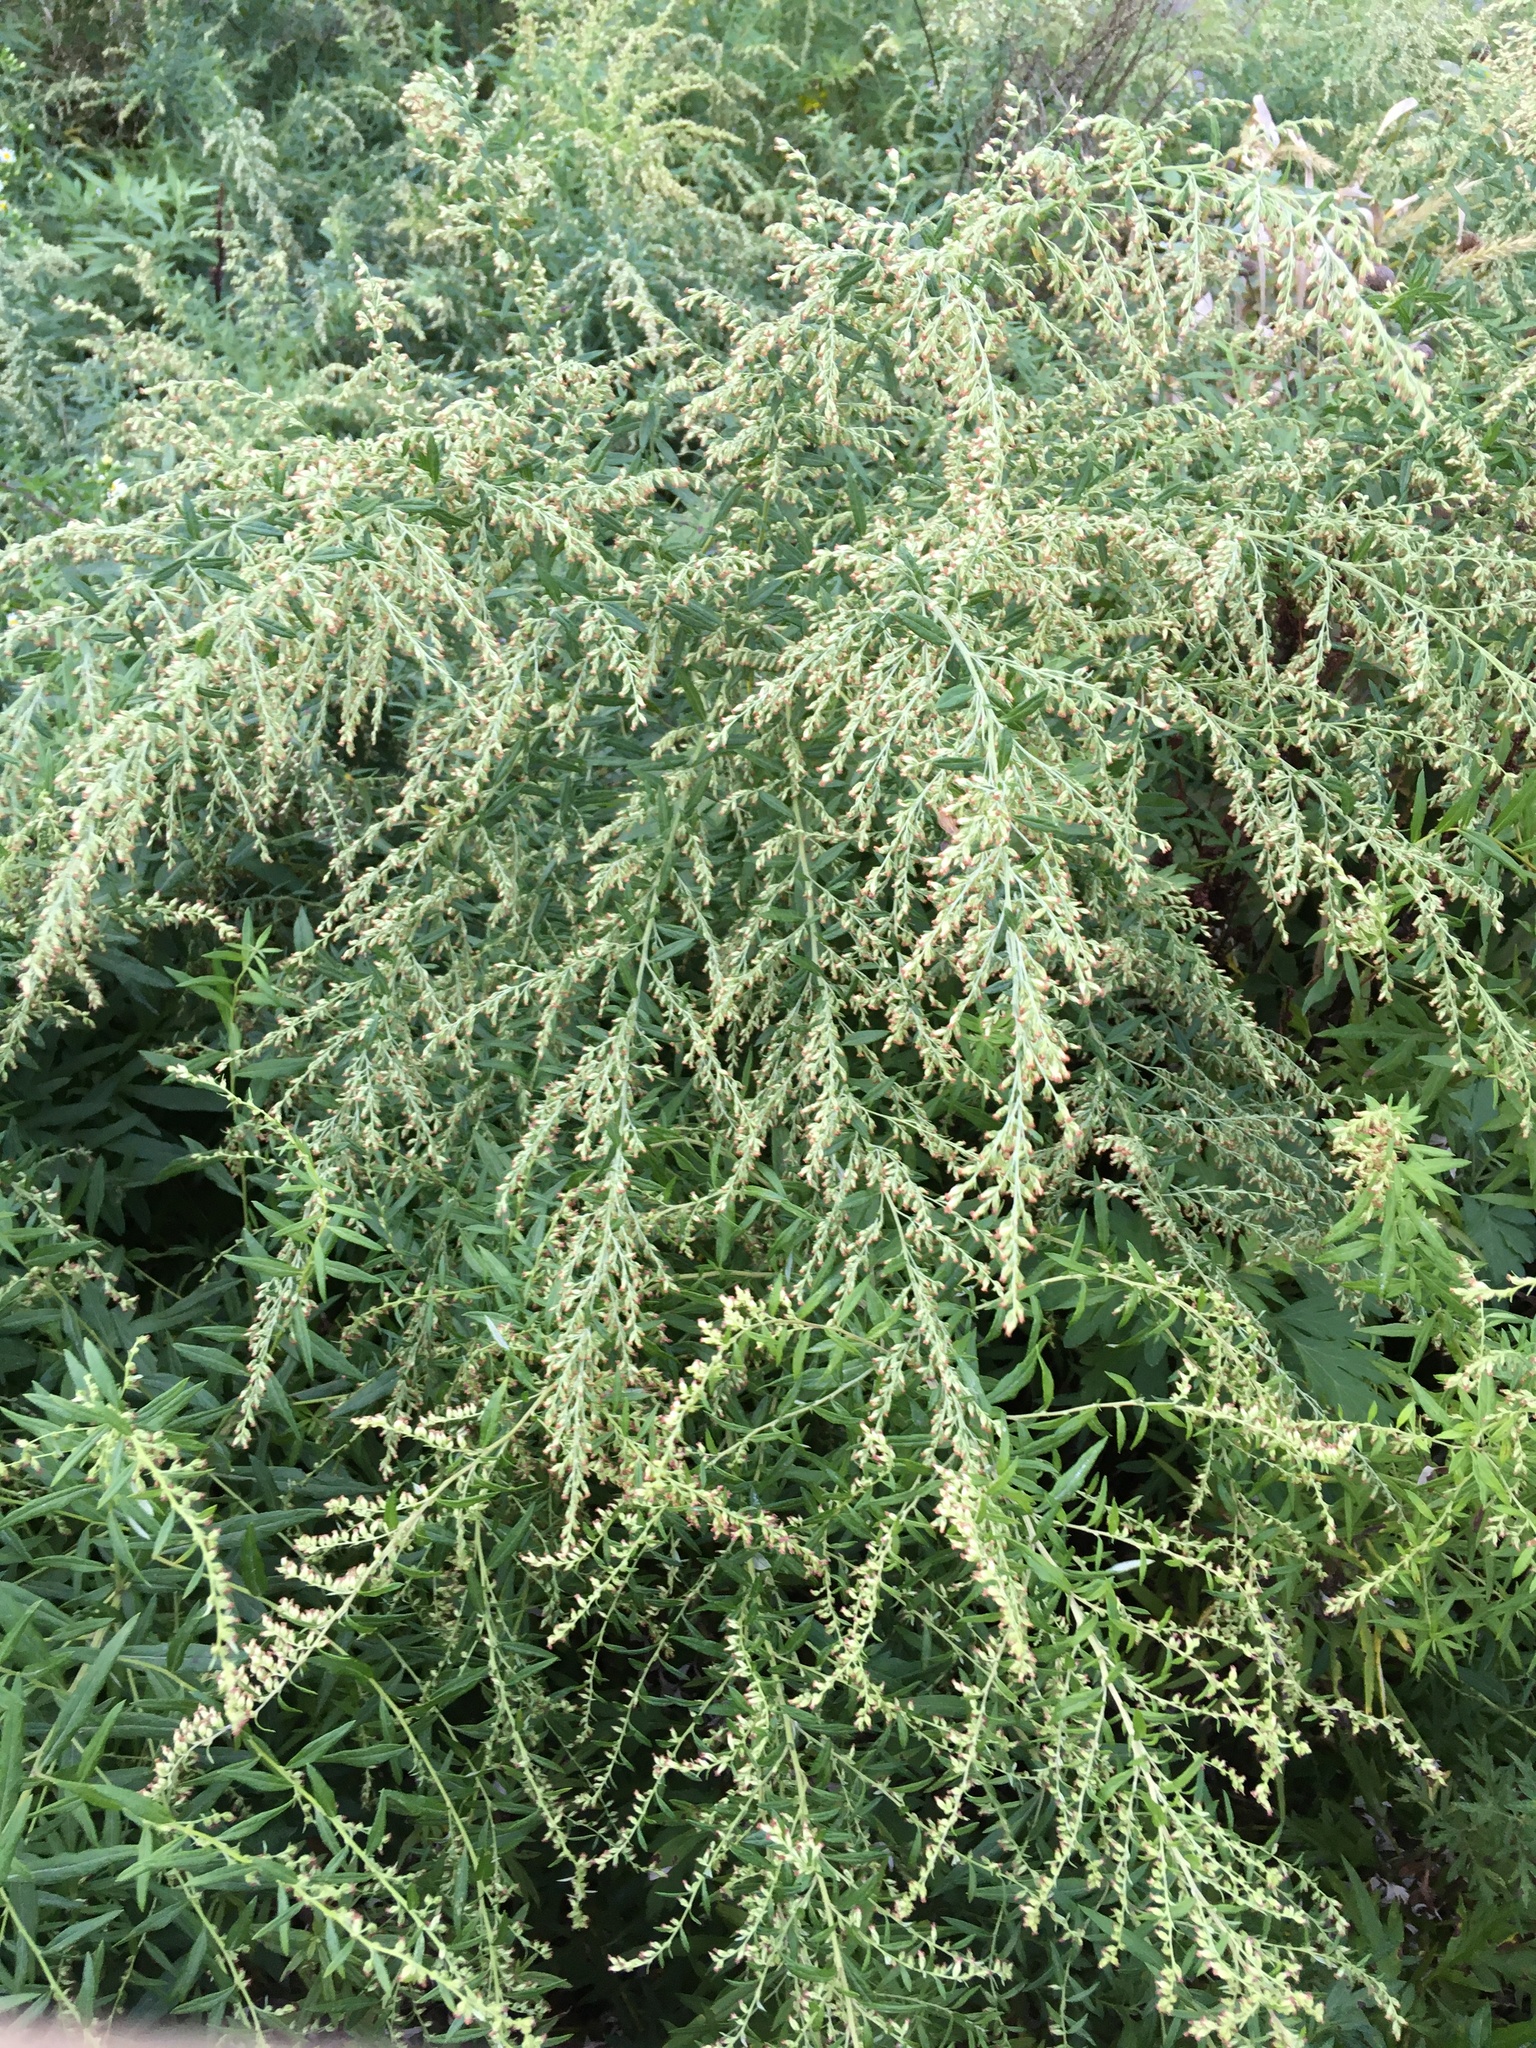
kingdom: Plantae
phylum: Tracheophyta
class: Magnoliopsida
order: Asterales
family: Asteraceae
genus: Artemisia
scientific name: Artemisia vulgaris
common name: Mugwort
